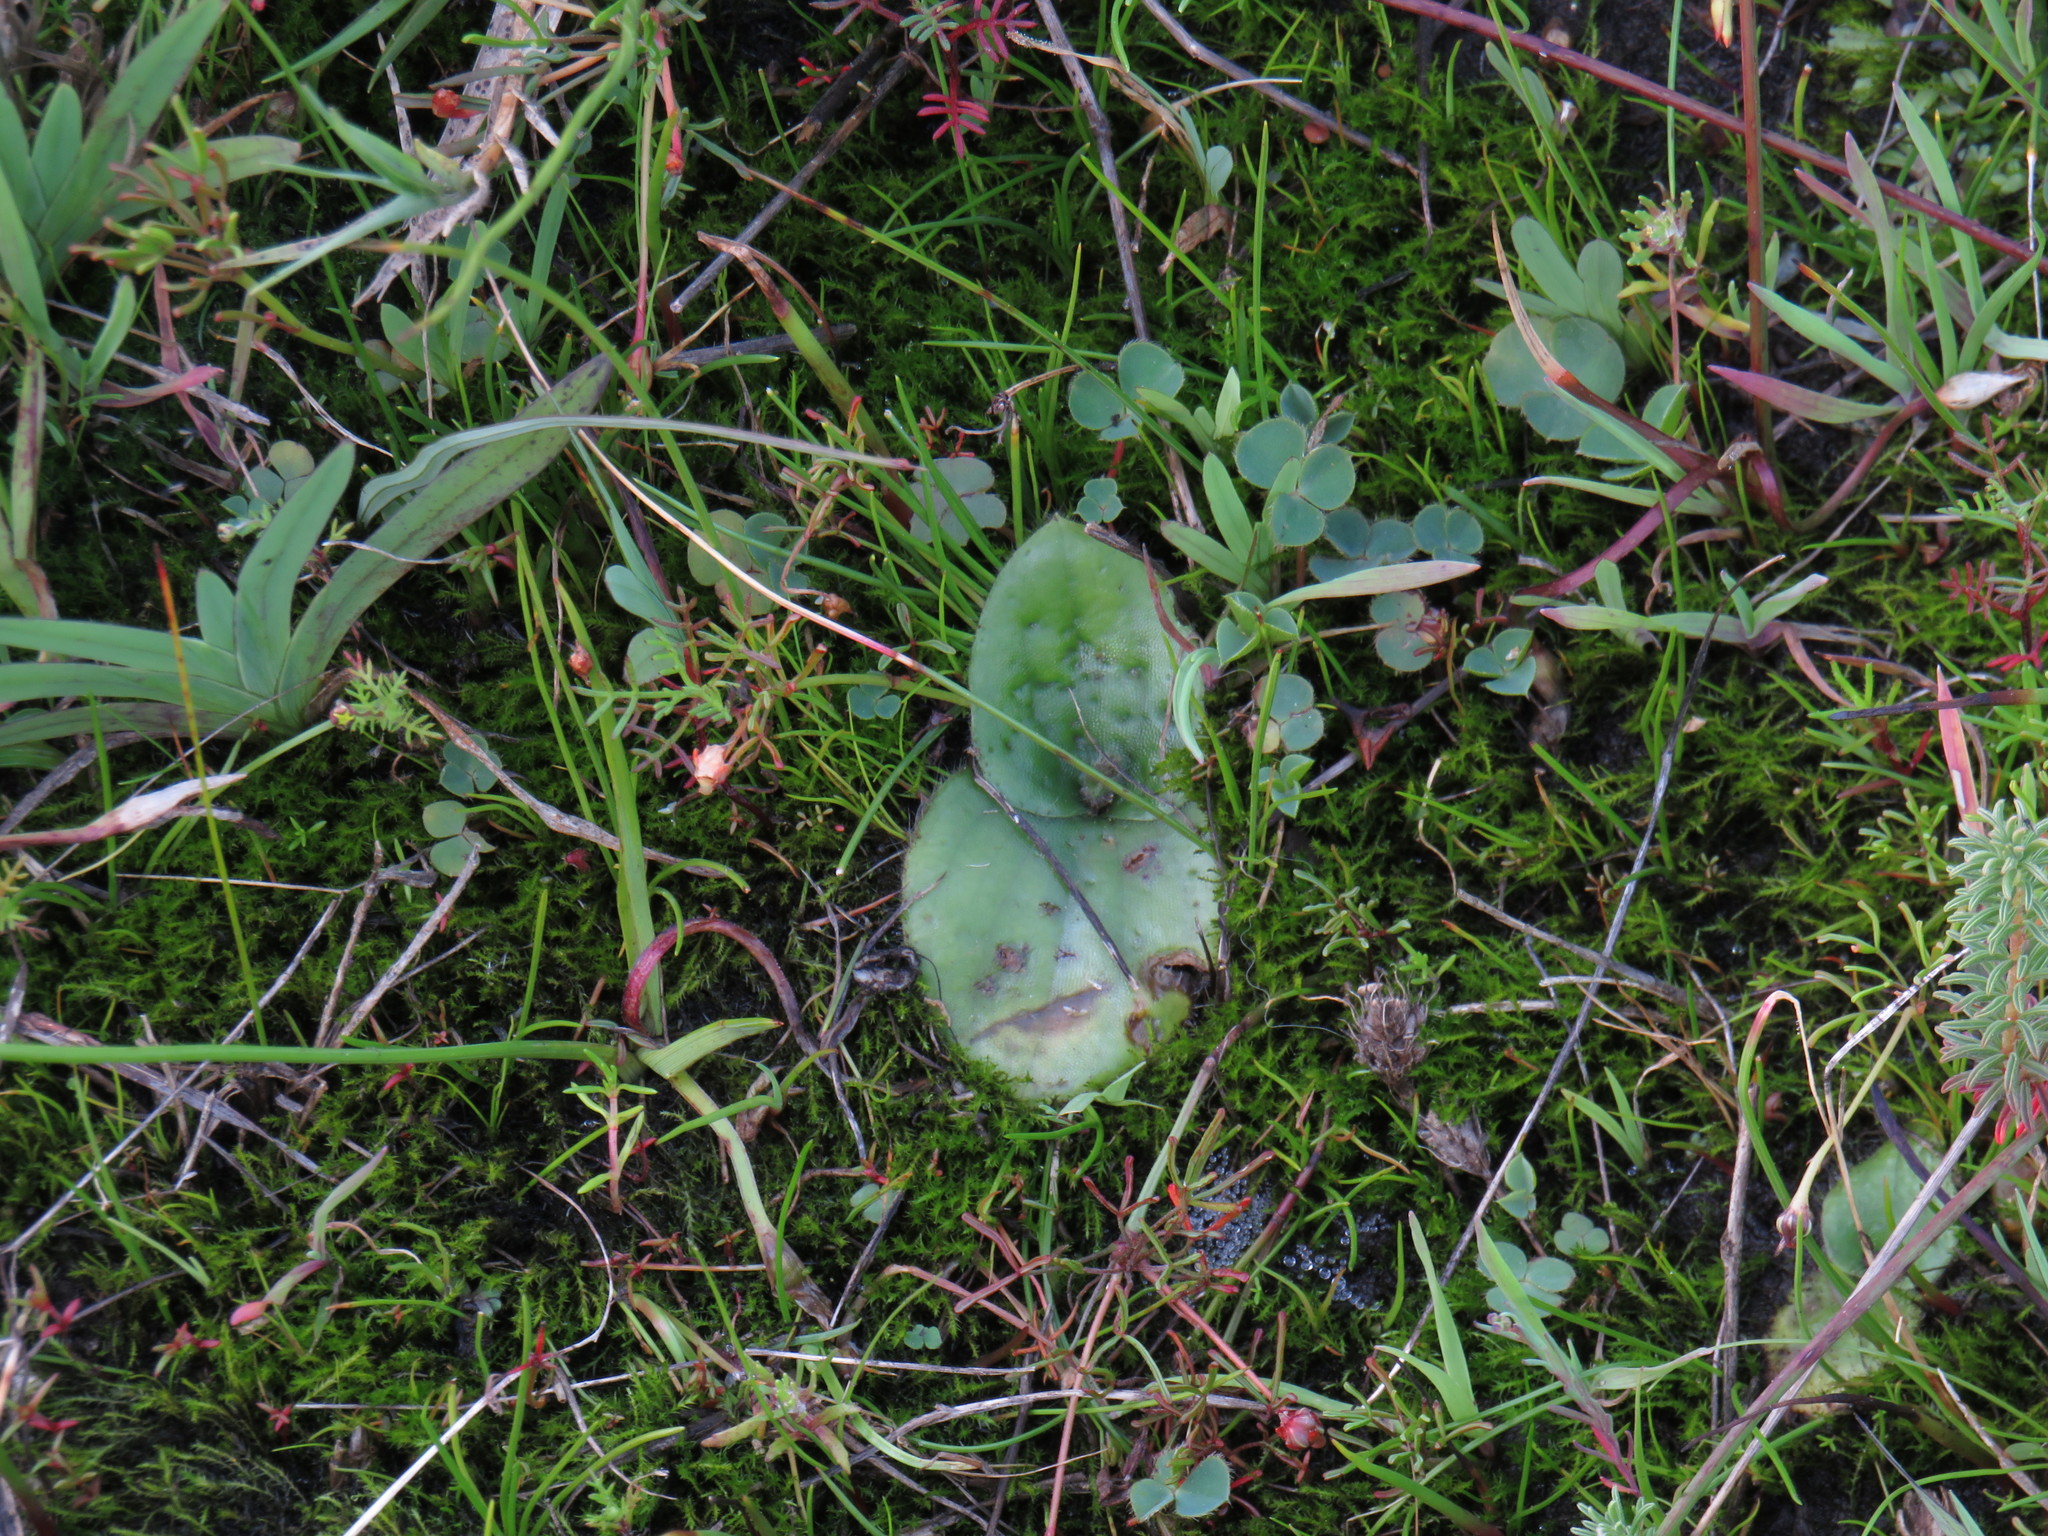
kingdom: Plantae
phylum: Tracheophyta
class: Liliopsida
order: Asparagales
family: Orchidaceae
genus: Holothrix
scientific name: Holothrix villosa
